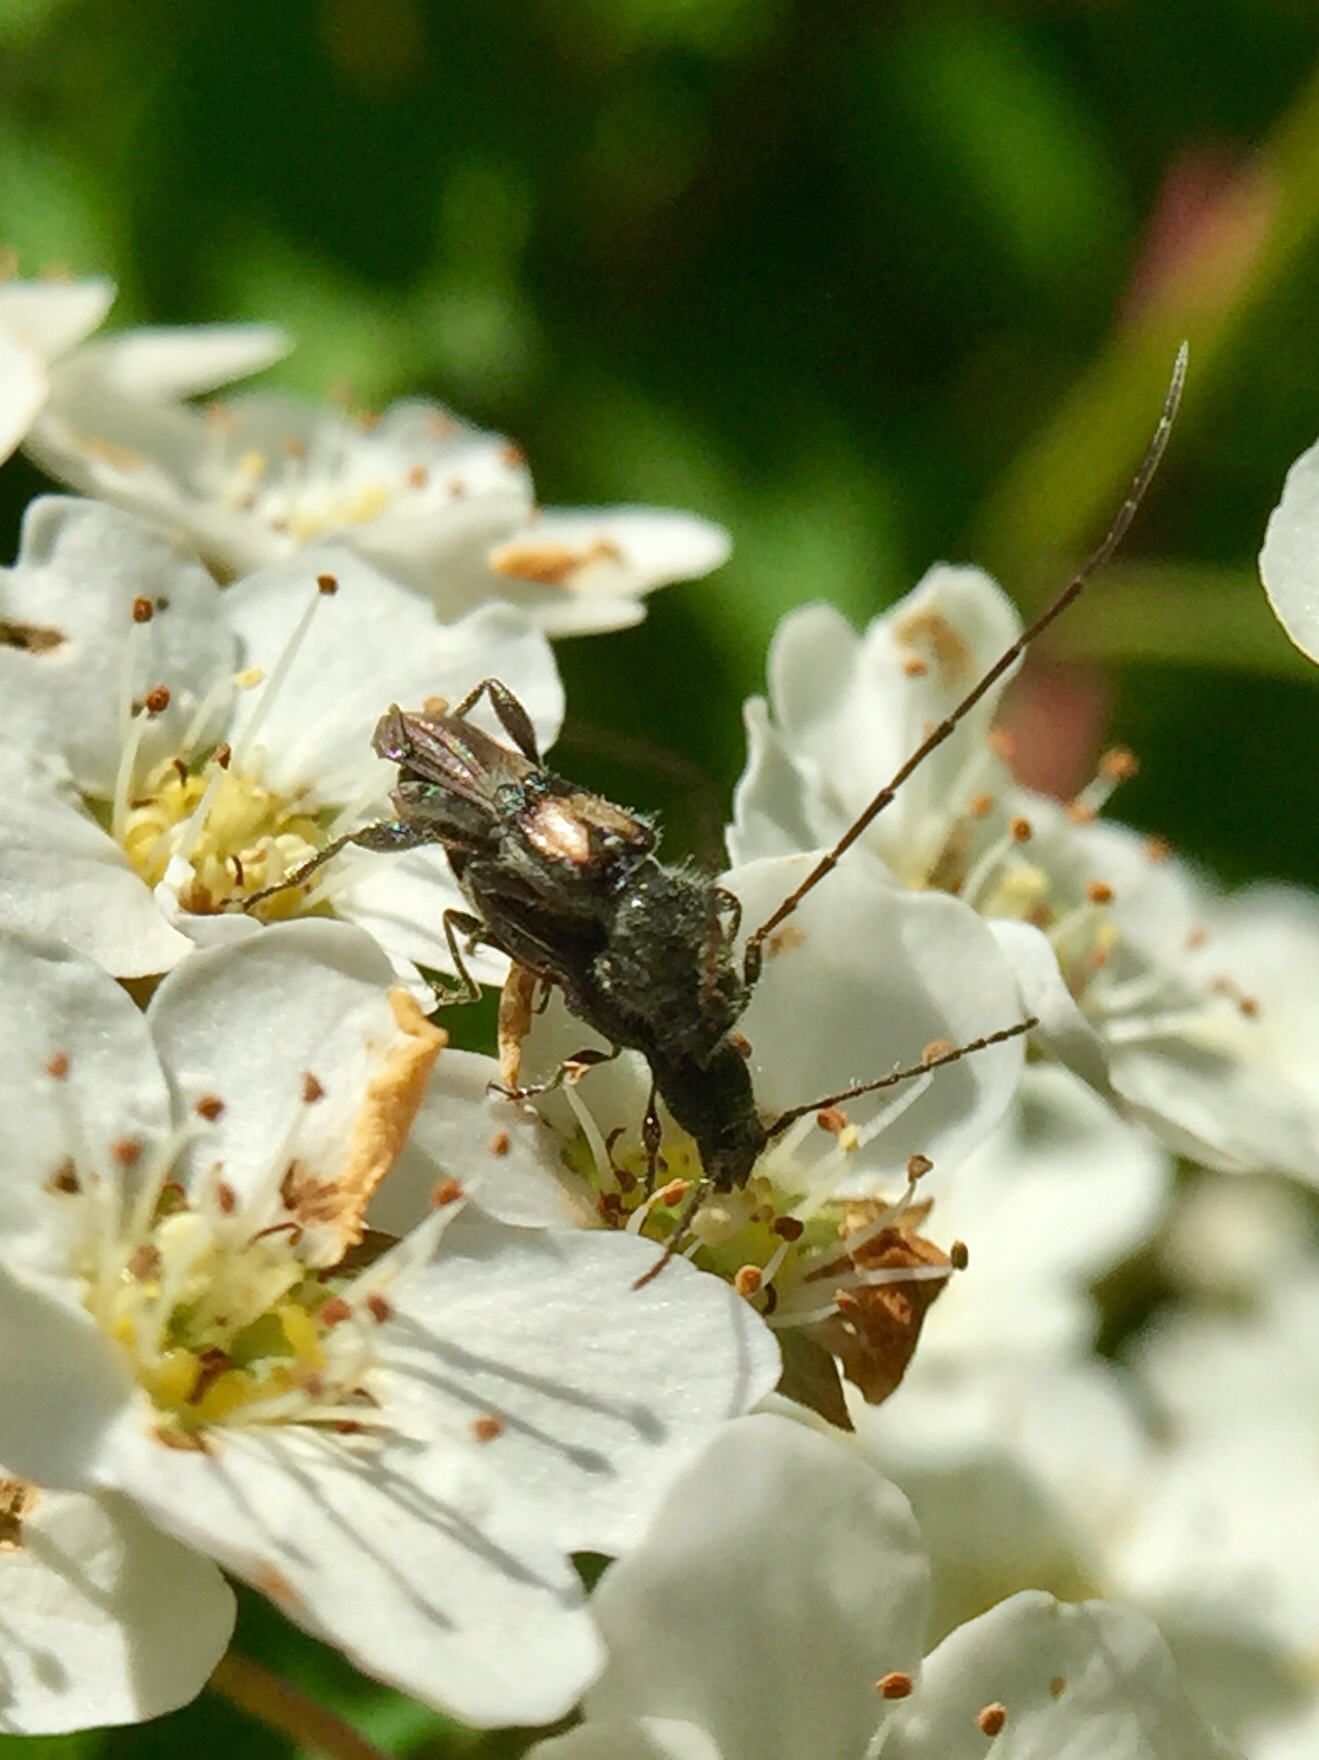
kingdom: Animalia
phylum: Arthropoda
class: Insecta
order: Coleoptera
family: Cerambycidae
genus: Molorchus
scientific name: Molorchus bimaculatus
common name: Bimaculate longhorn beetle
